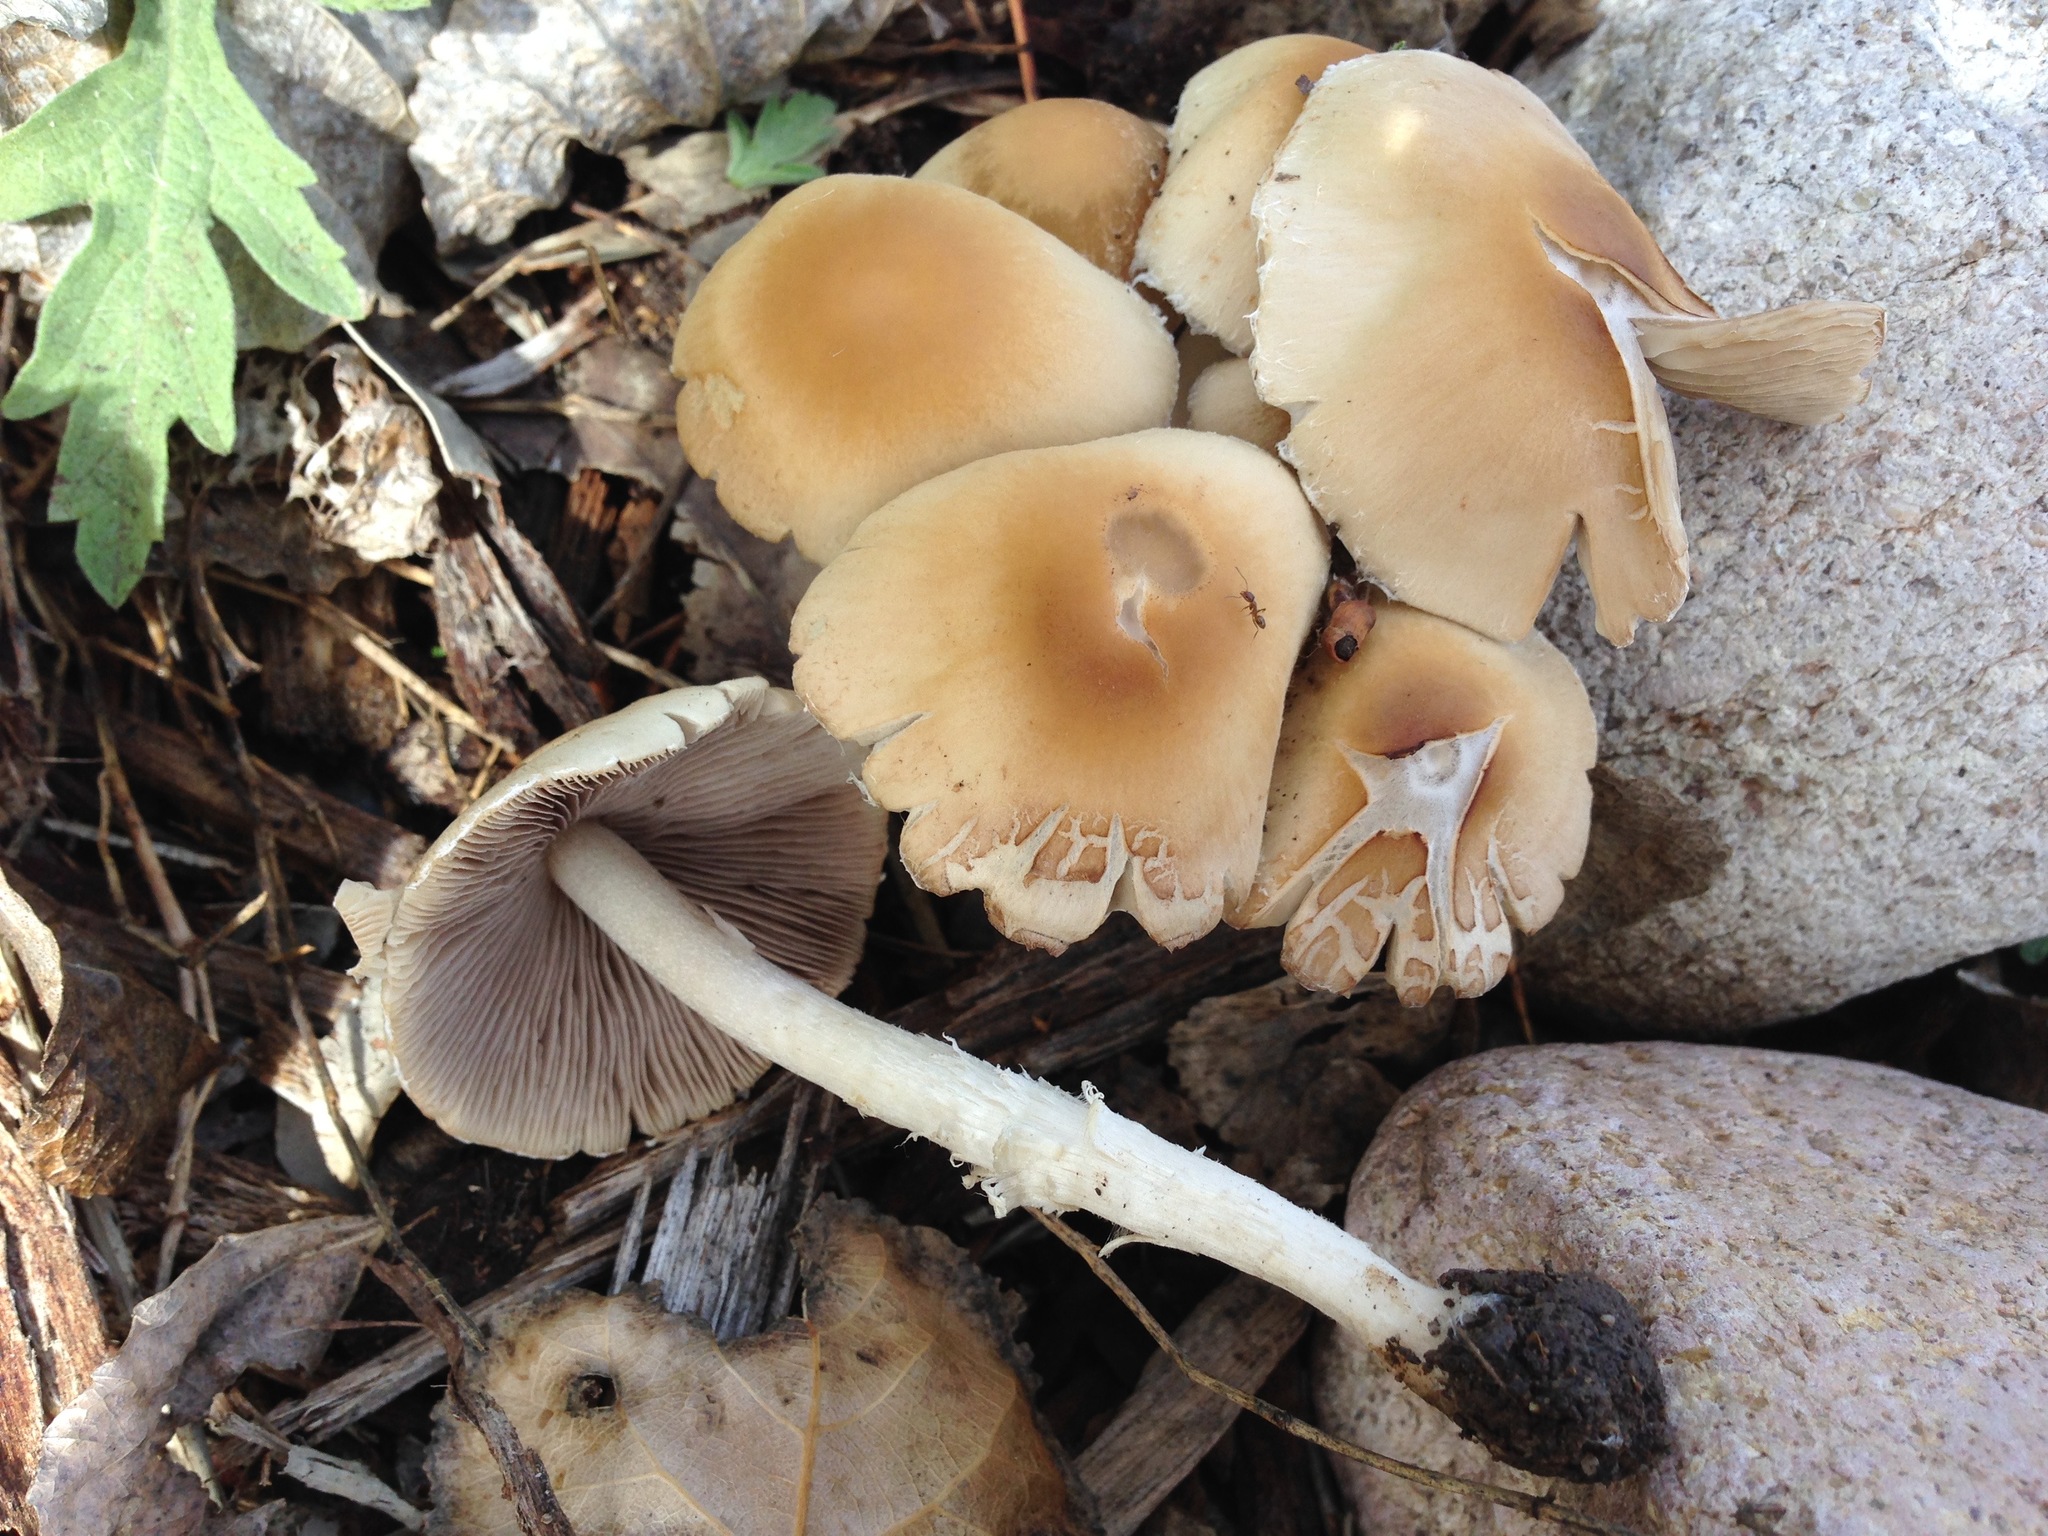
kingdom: Fungi
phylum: Basidiomycota
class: Agaricomycetes
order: Agaricales
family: Psathyrellaceae
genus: Candolleomyces
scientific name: Candolleomyces candolleanus
